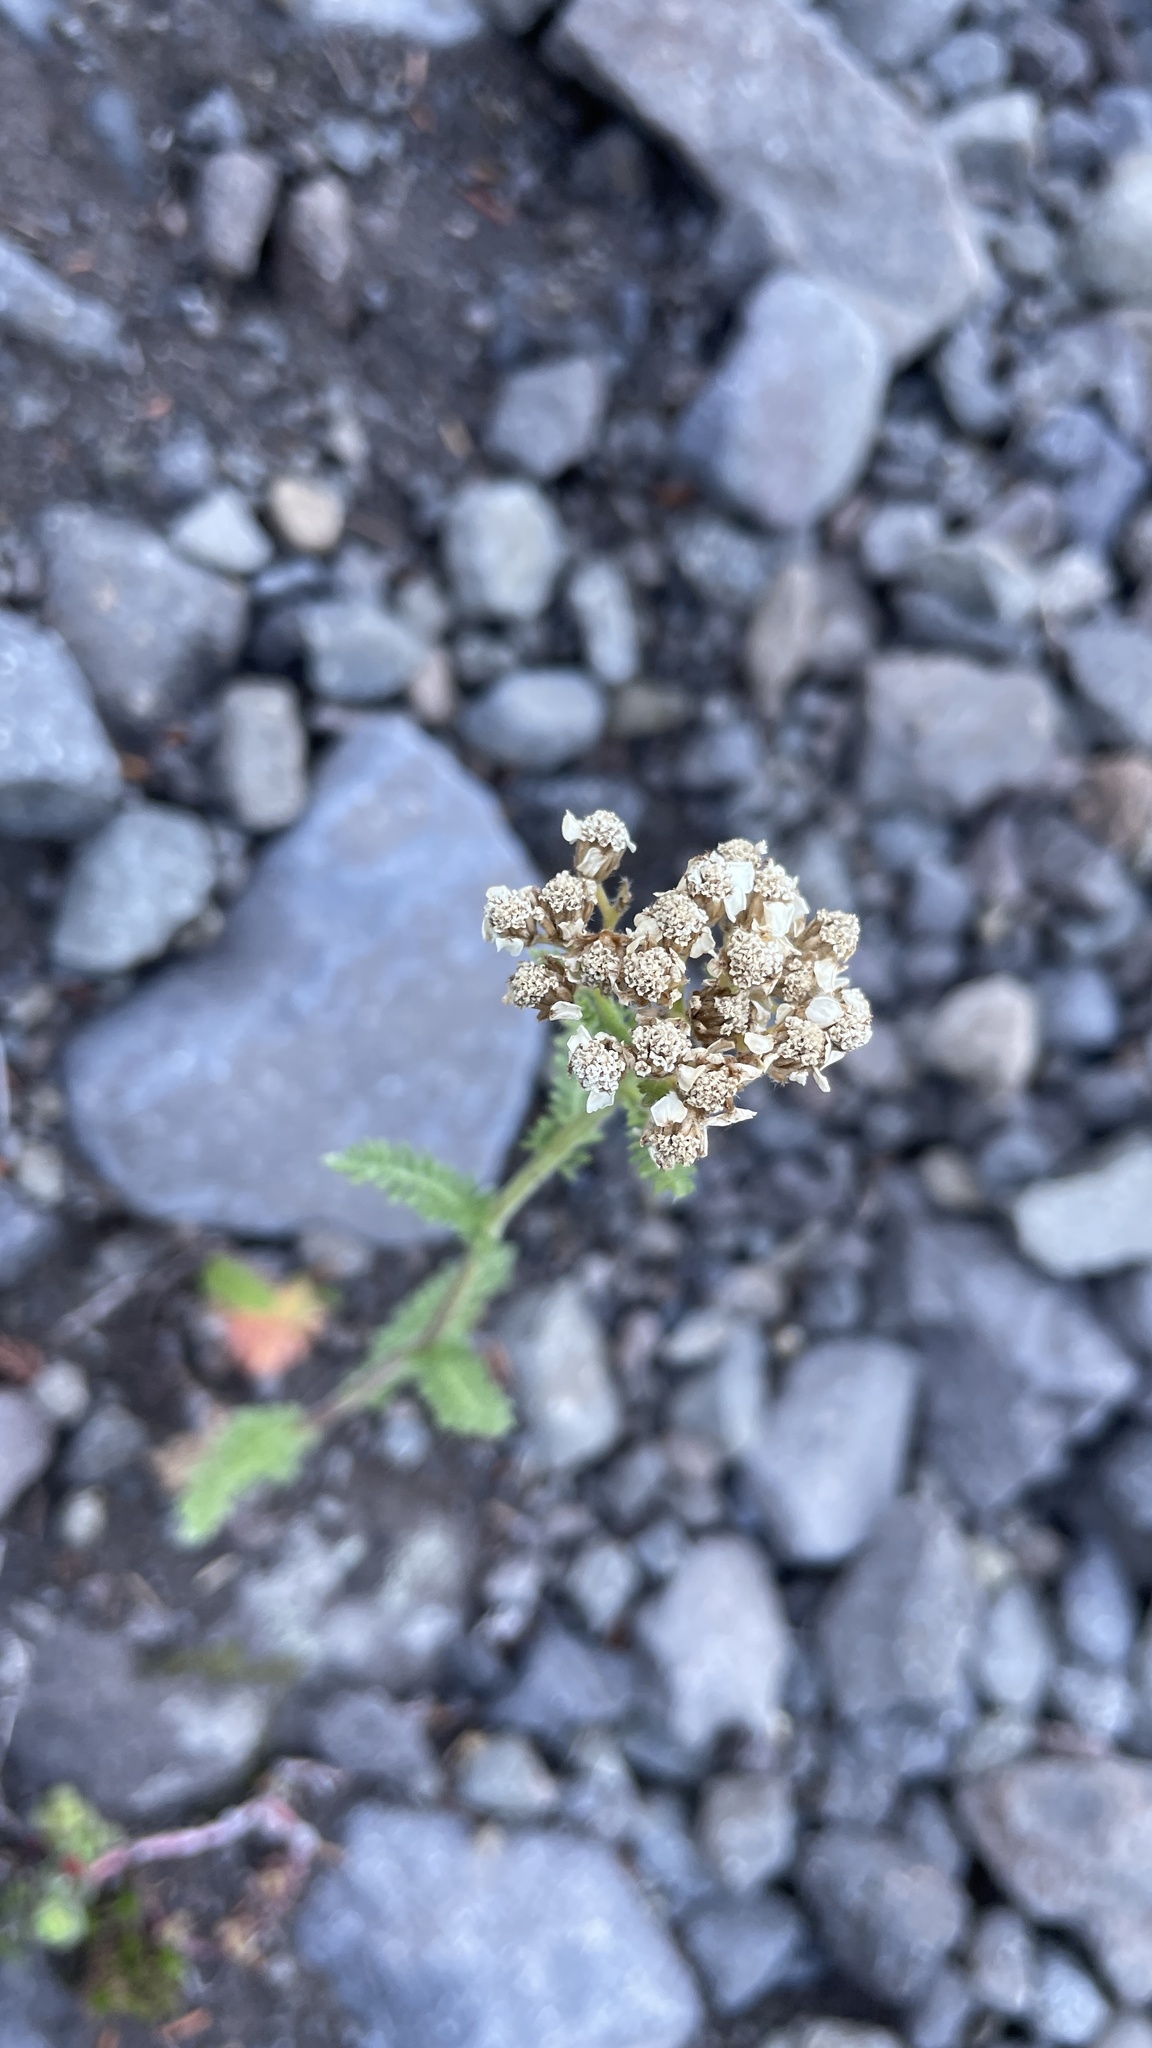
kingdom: Plantae
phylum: Tracheophyta
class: Magnoliopsida
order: Asterales
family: Asteraceae
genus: Achillea
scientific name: Achillea millefolium
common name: Yarrow
